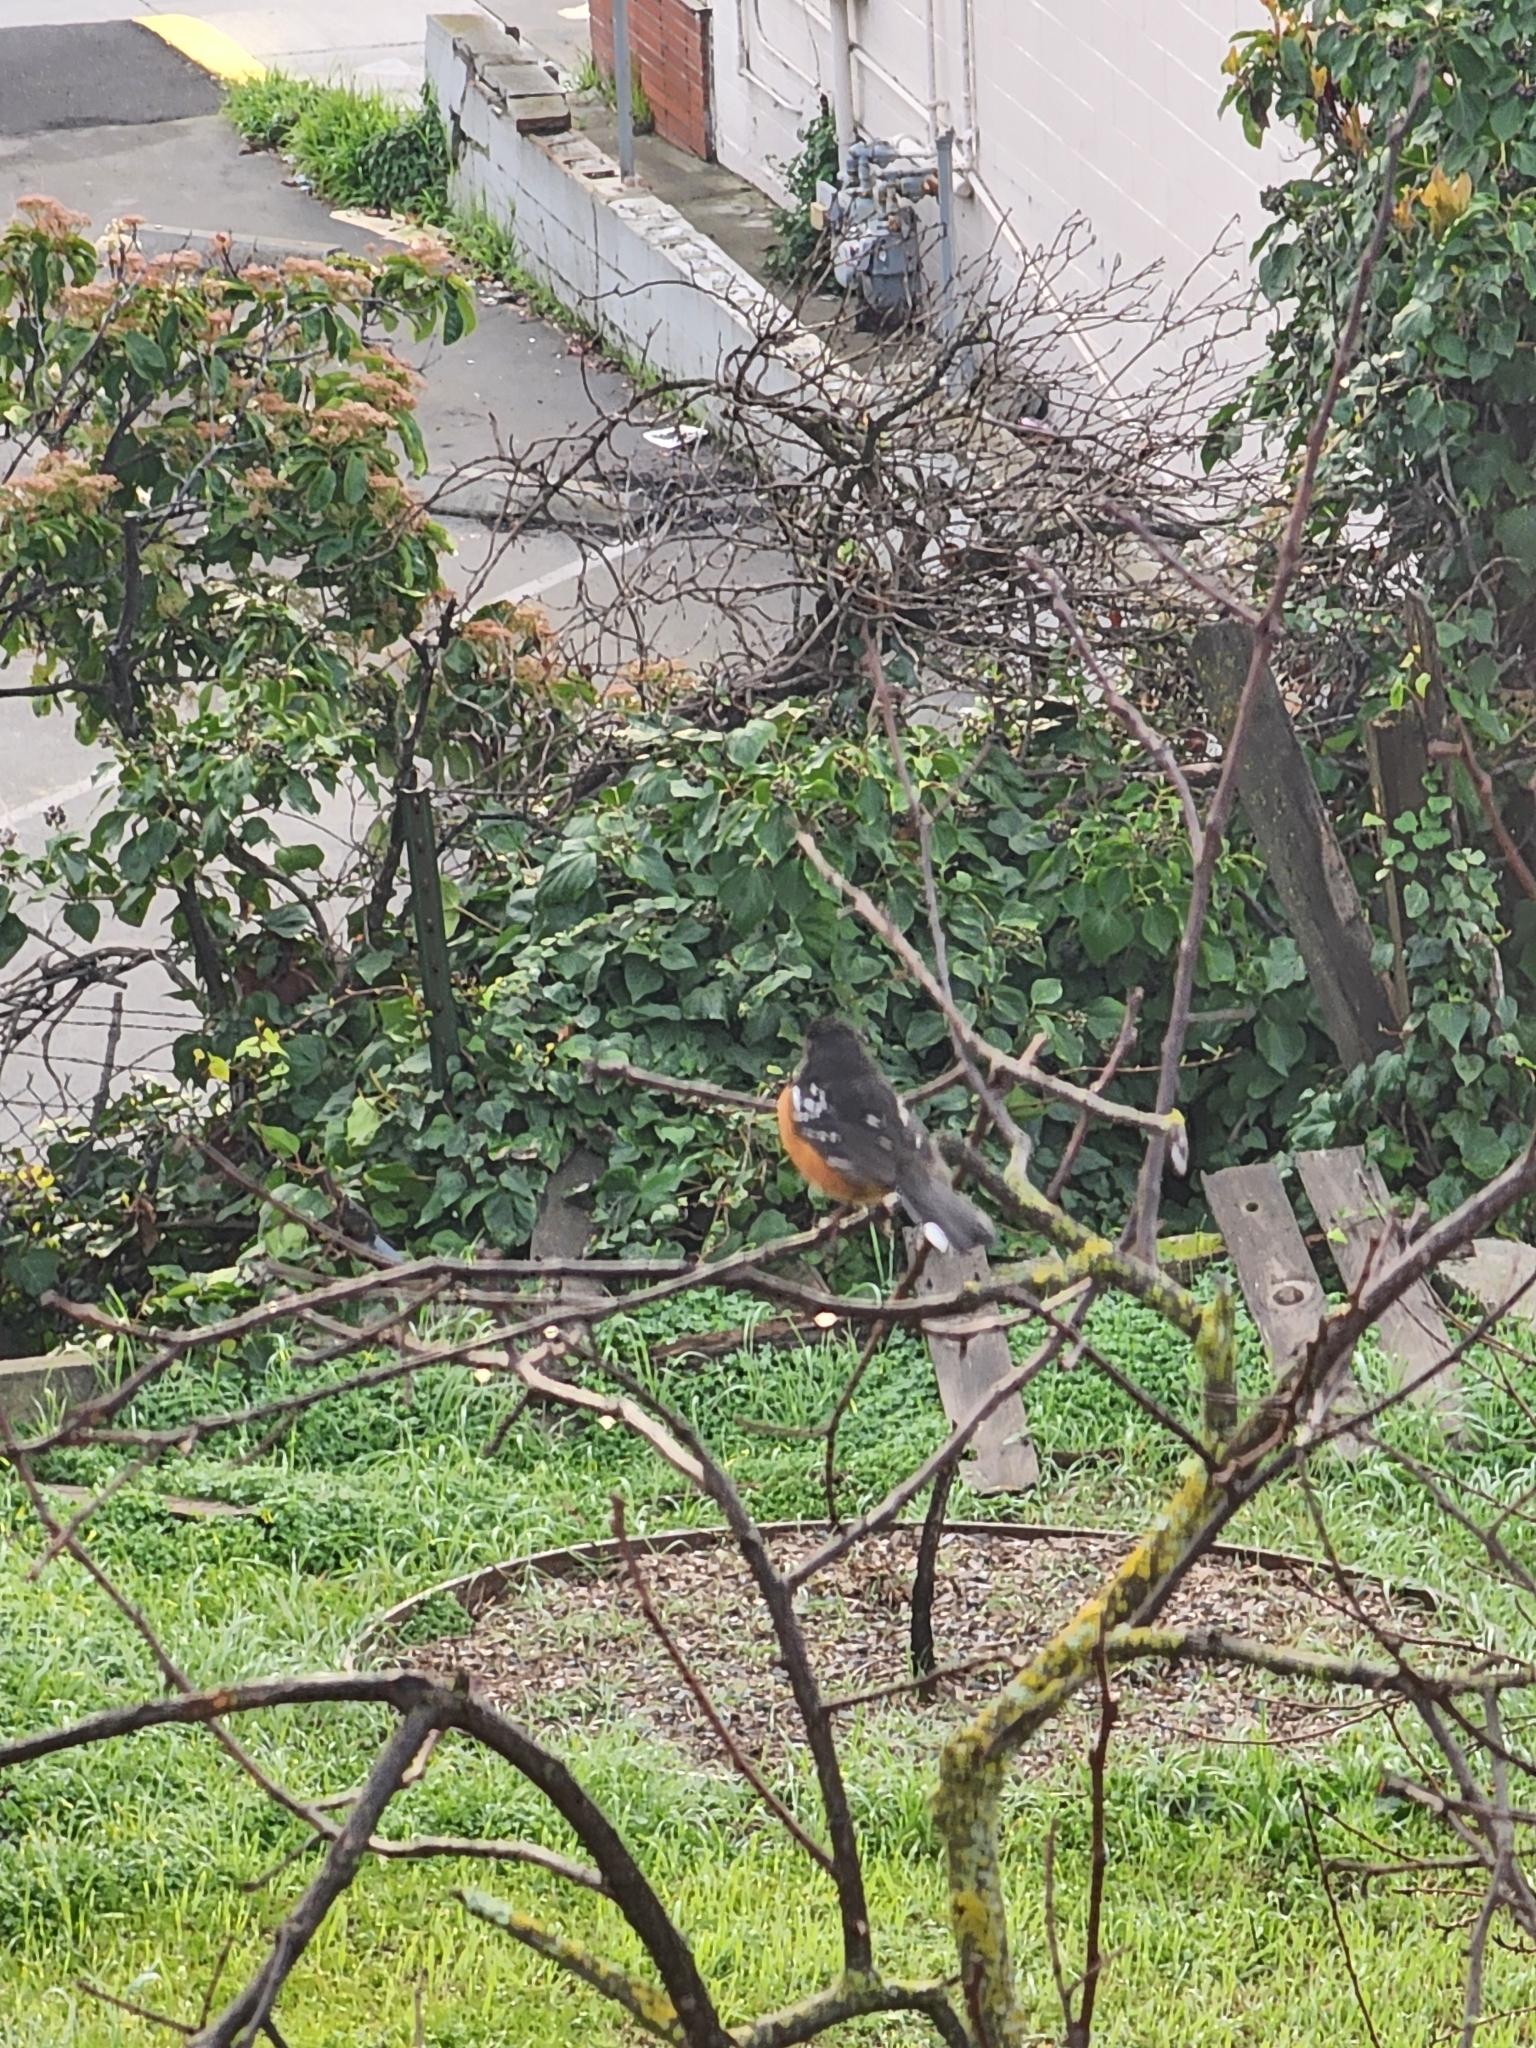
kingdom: Animalia
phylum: Chordata
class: Aves
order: Passeriformes
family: Passerellidae
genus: Pipilo
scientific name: Pipilo maculatus
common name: Spotted towhee
